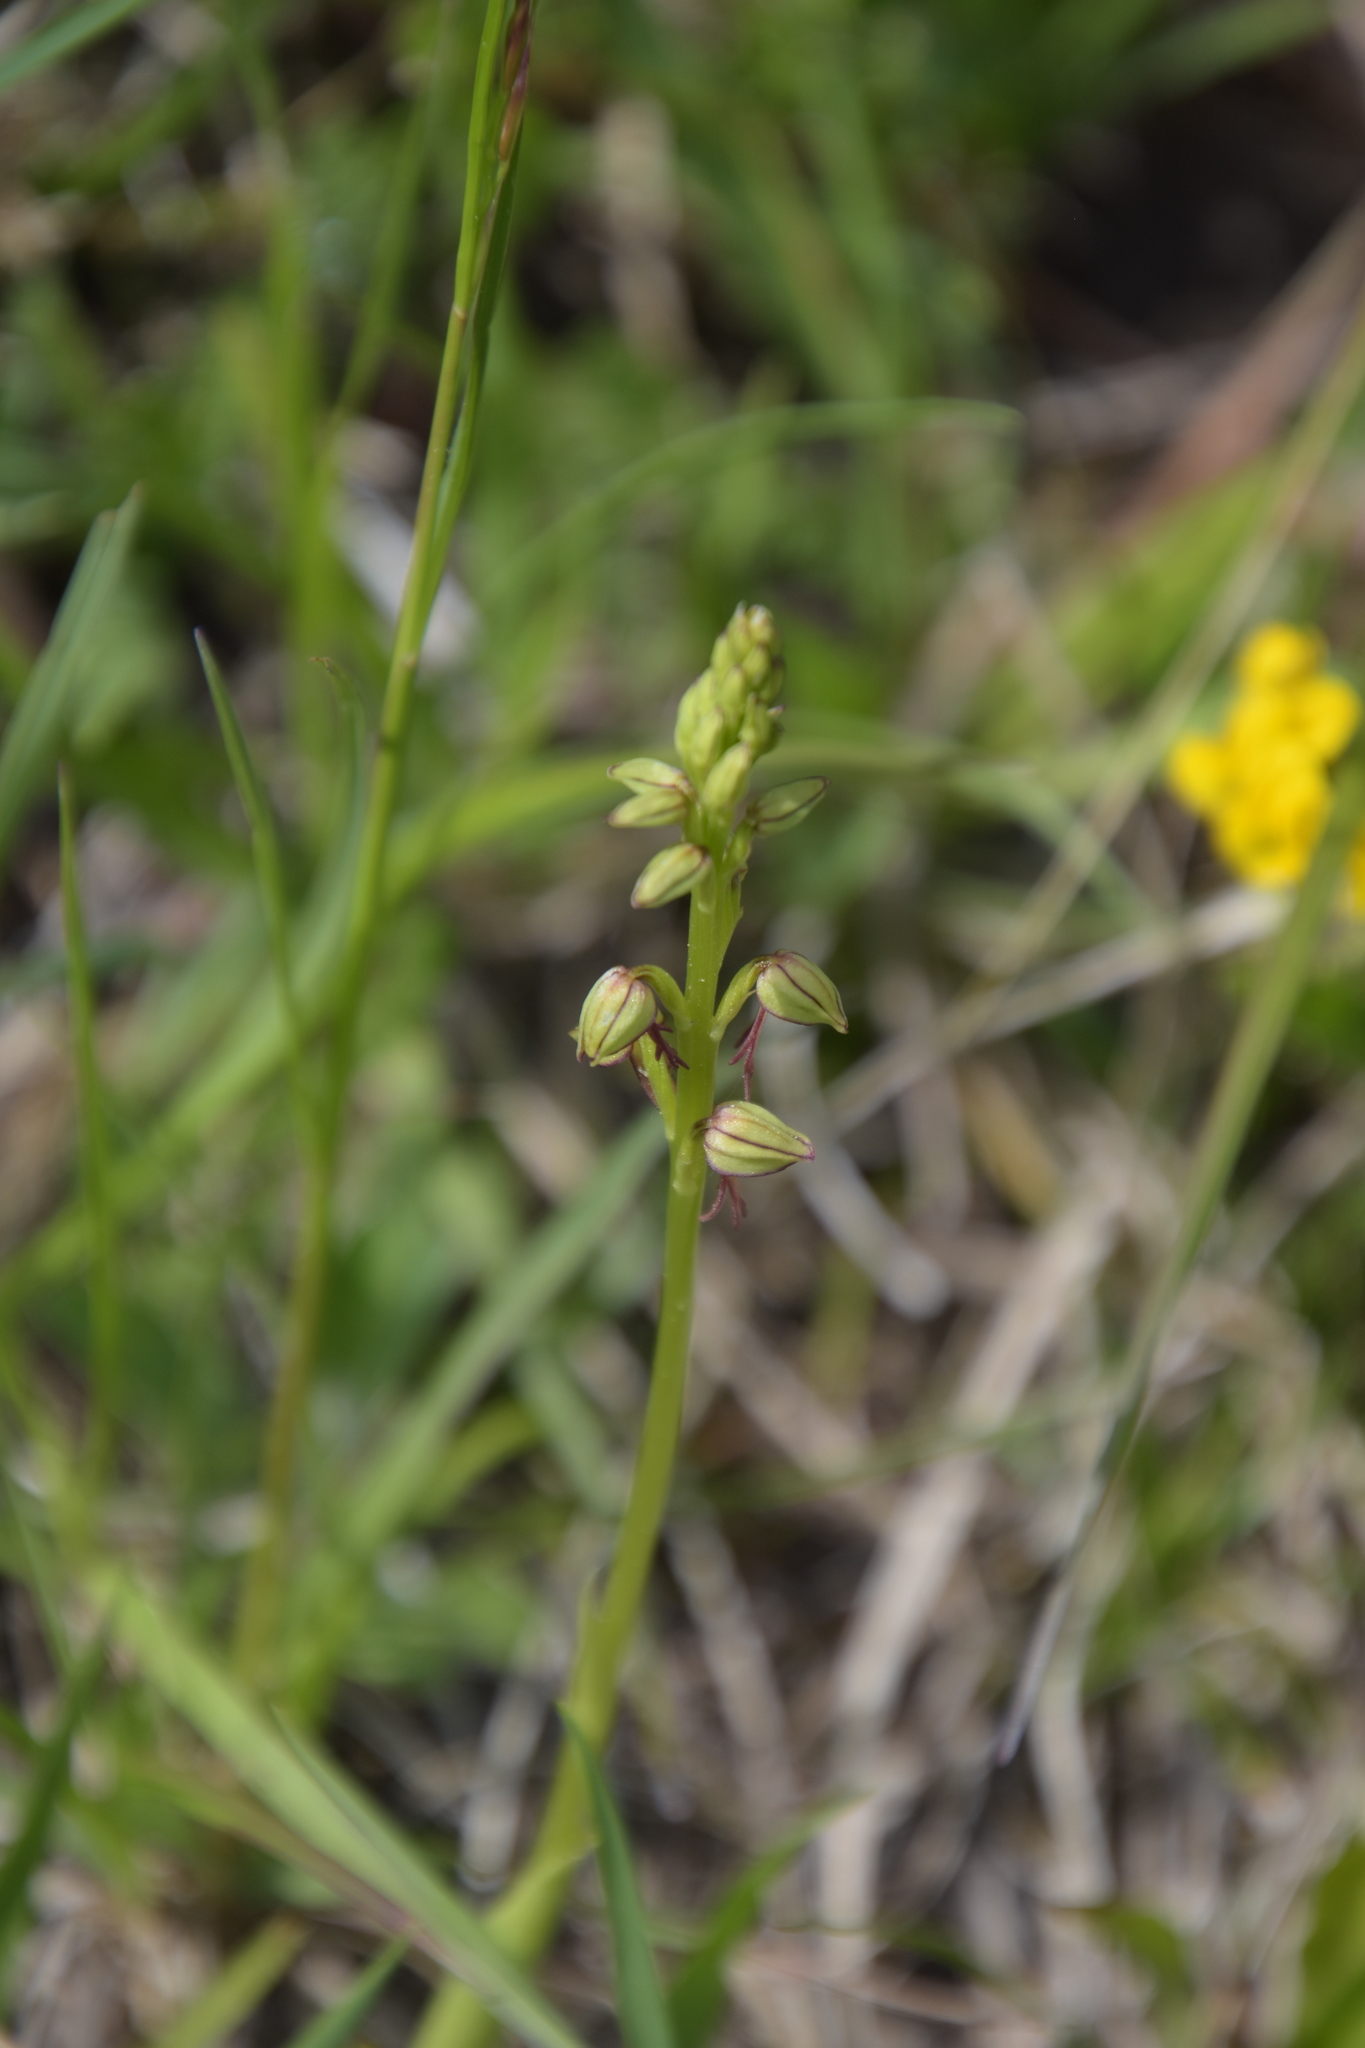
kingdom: Plantae
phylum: Tracheophyta
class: Liliopsida
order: Asparagales
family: Orchidaceae
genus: Orchis
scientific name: Orchis anthropophora
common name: Man orchid
